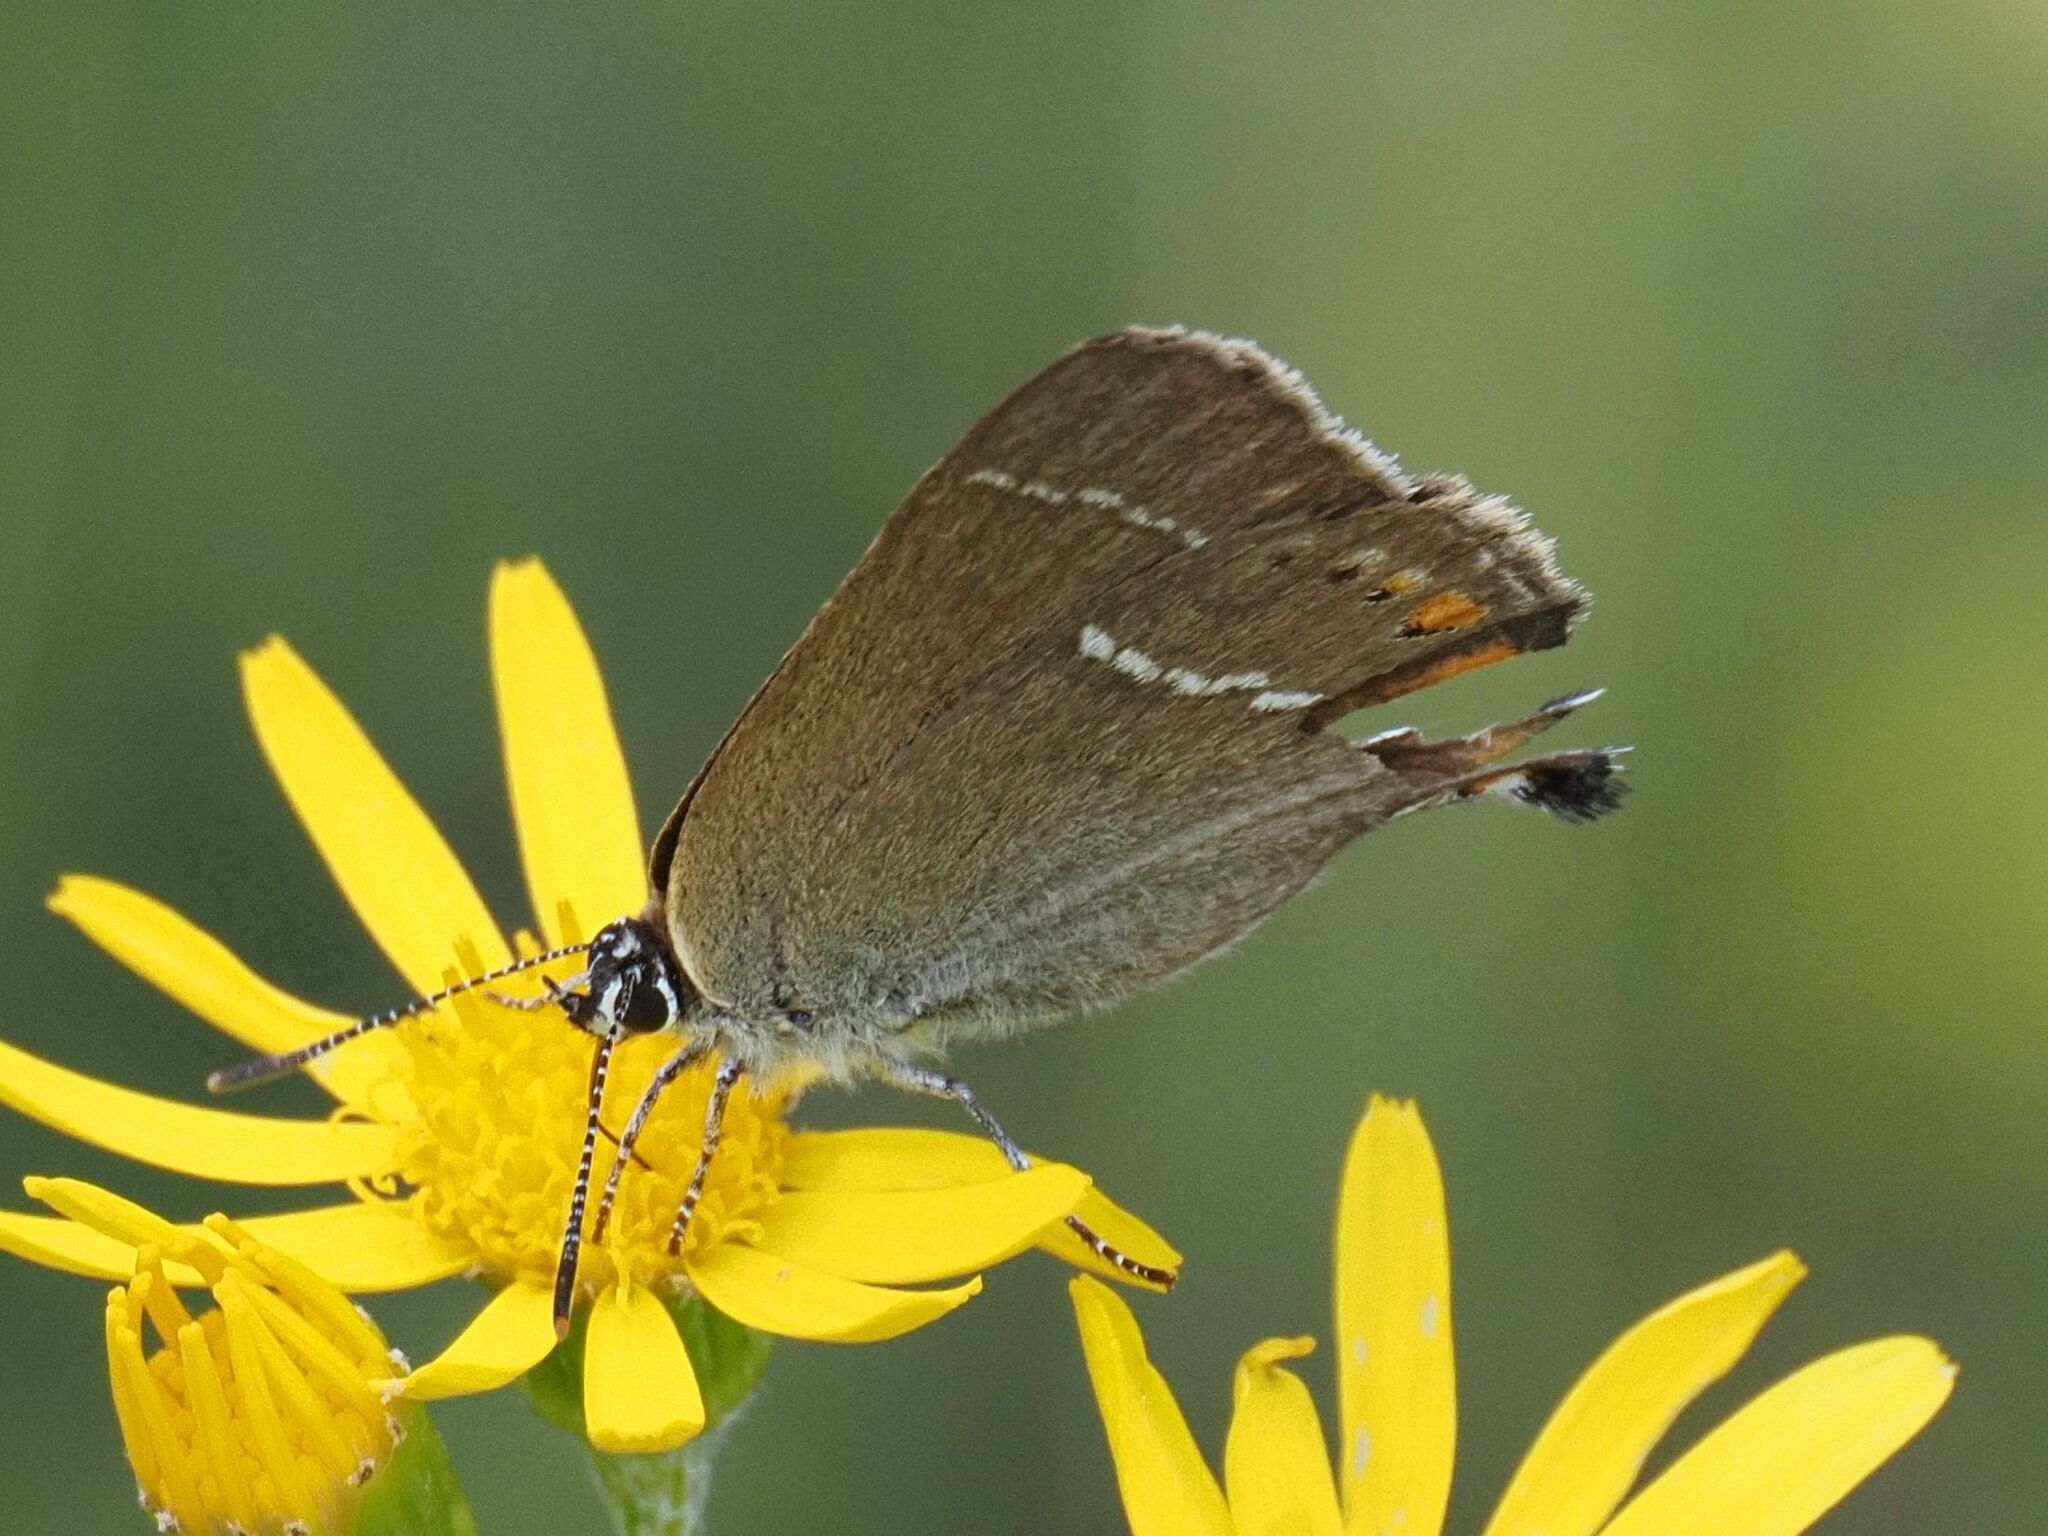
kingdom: Animalia
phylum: Arthropoda
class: Insecta
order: Lepidoptera
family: Lycaenidae
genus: Tuttiola
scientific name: Tuttiola spini
